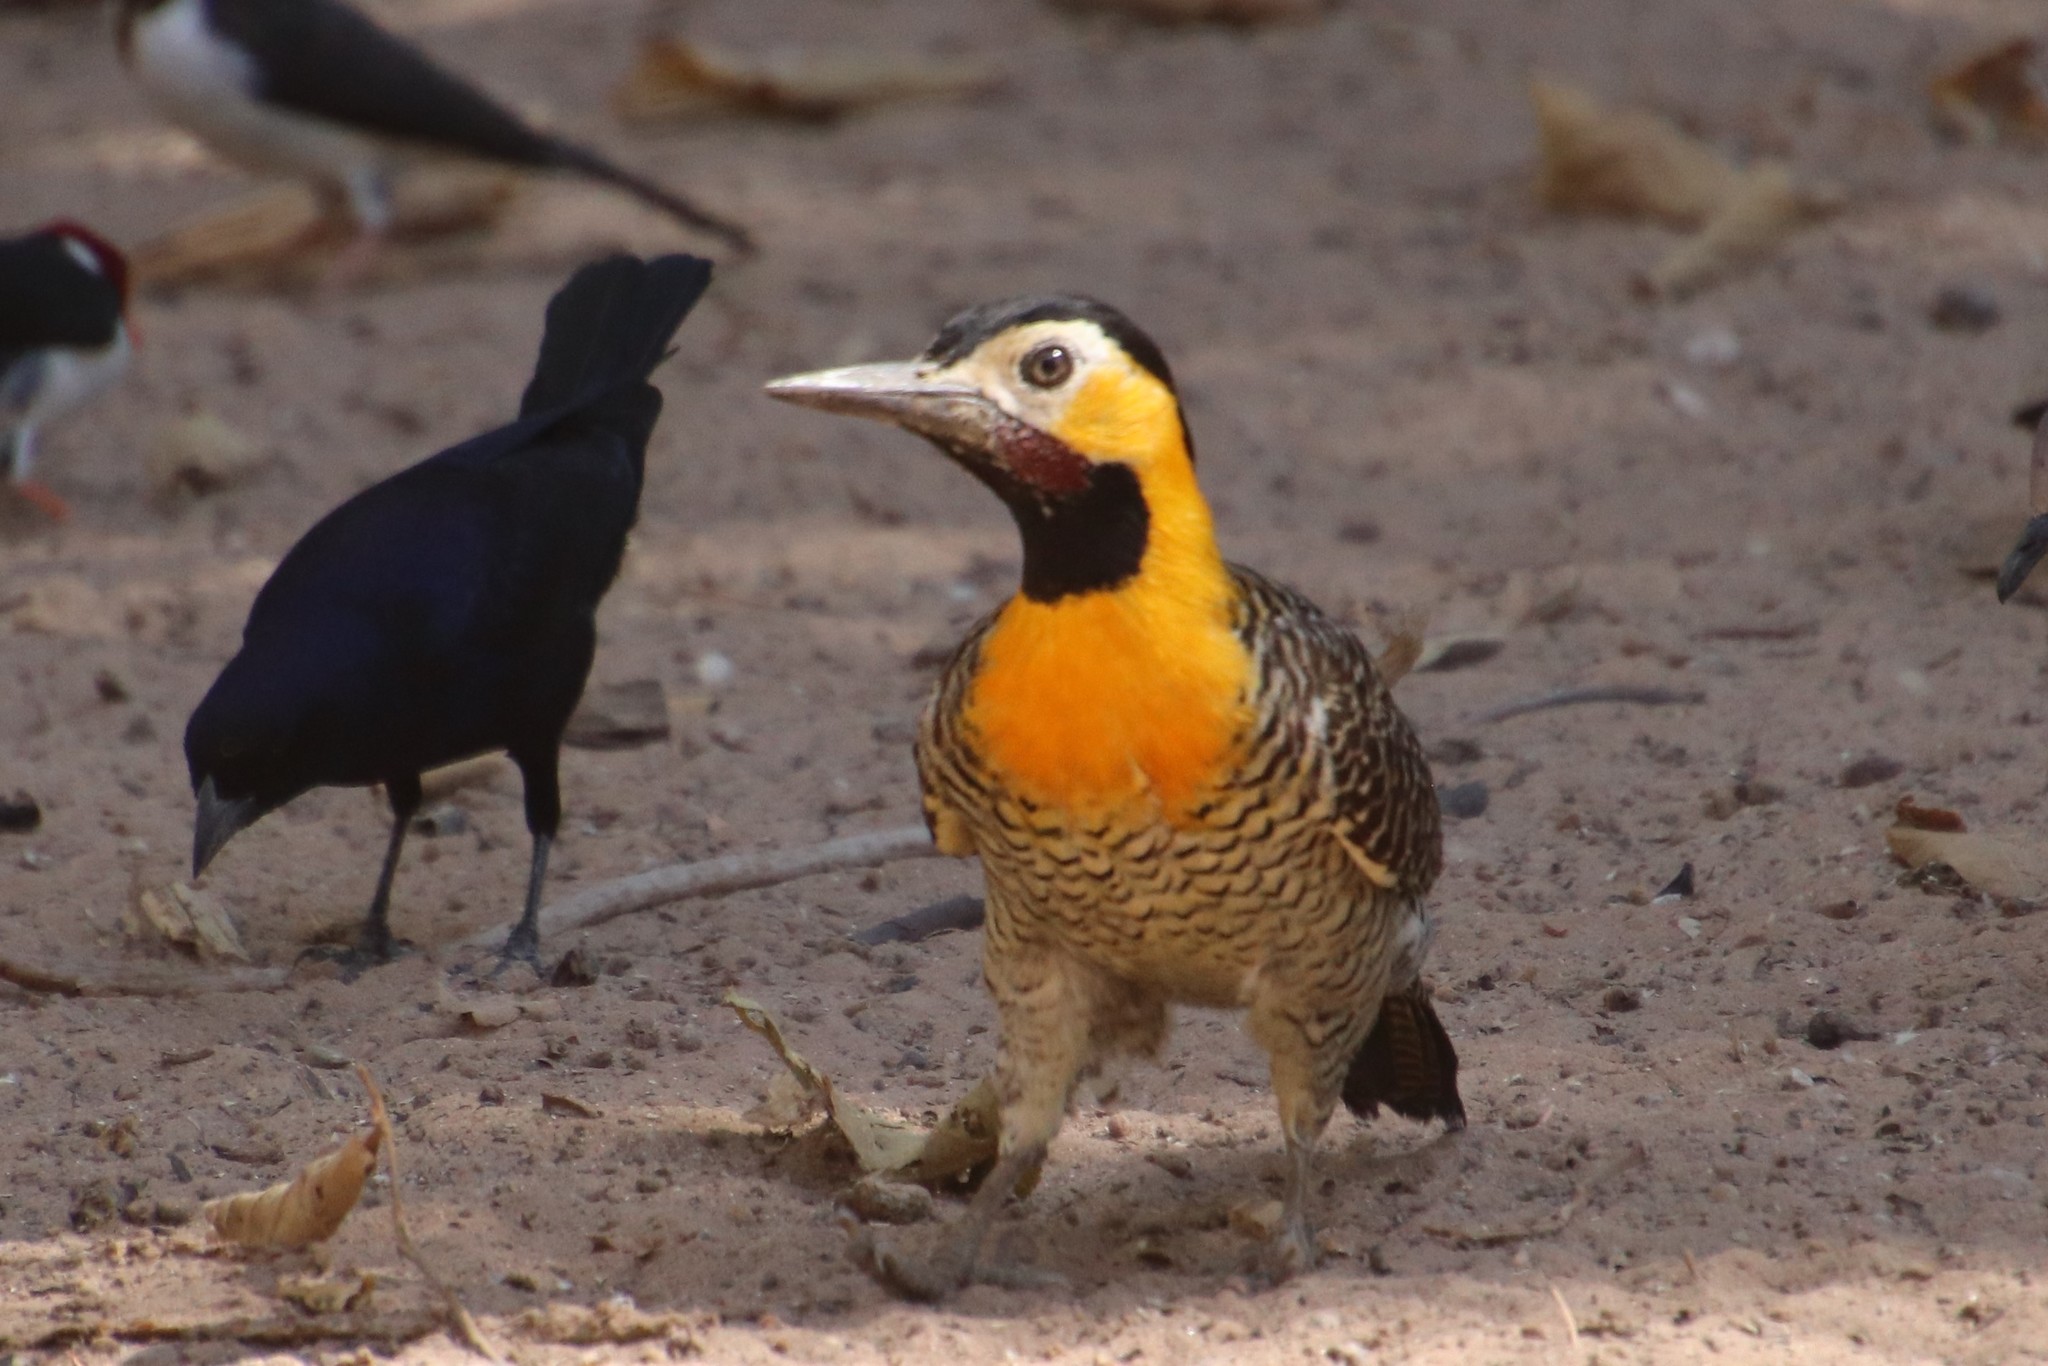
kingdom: Animalia
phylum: Chordata
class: Aves
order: Piciformes
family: Picidae
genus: Colaptes
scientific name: Colaptes campestris
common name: Campo flicker
